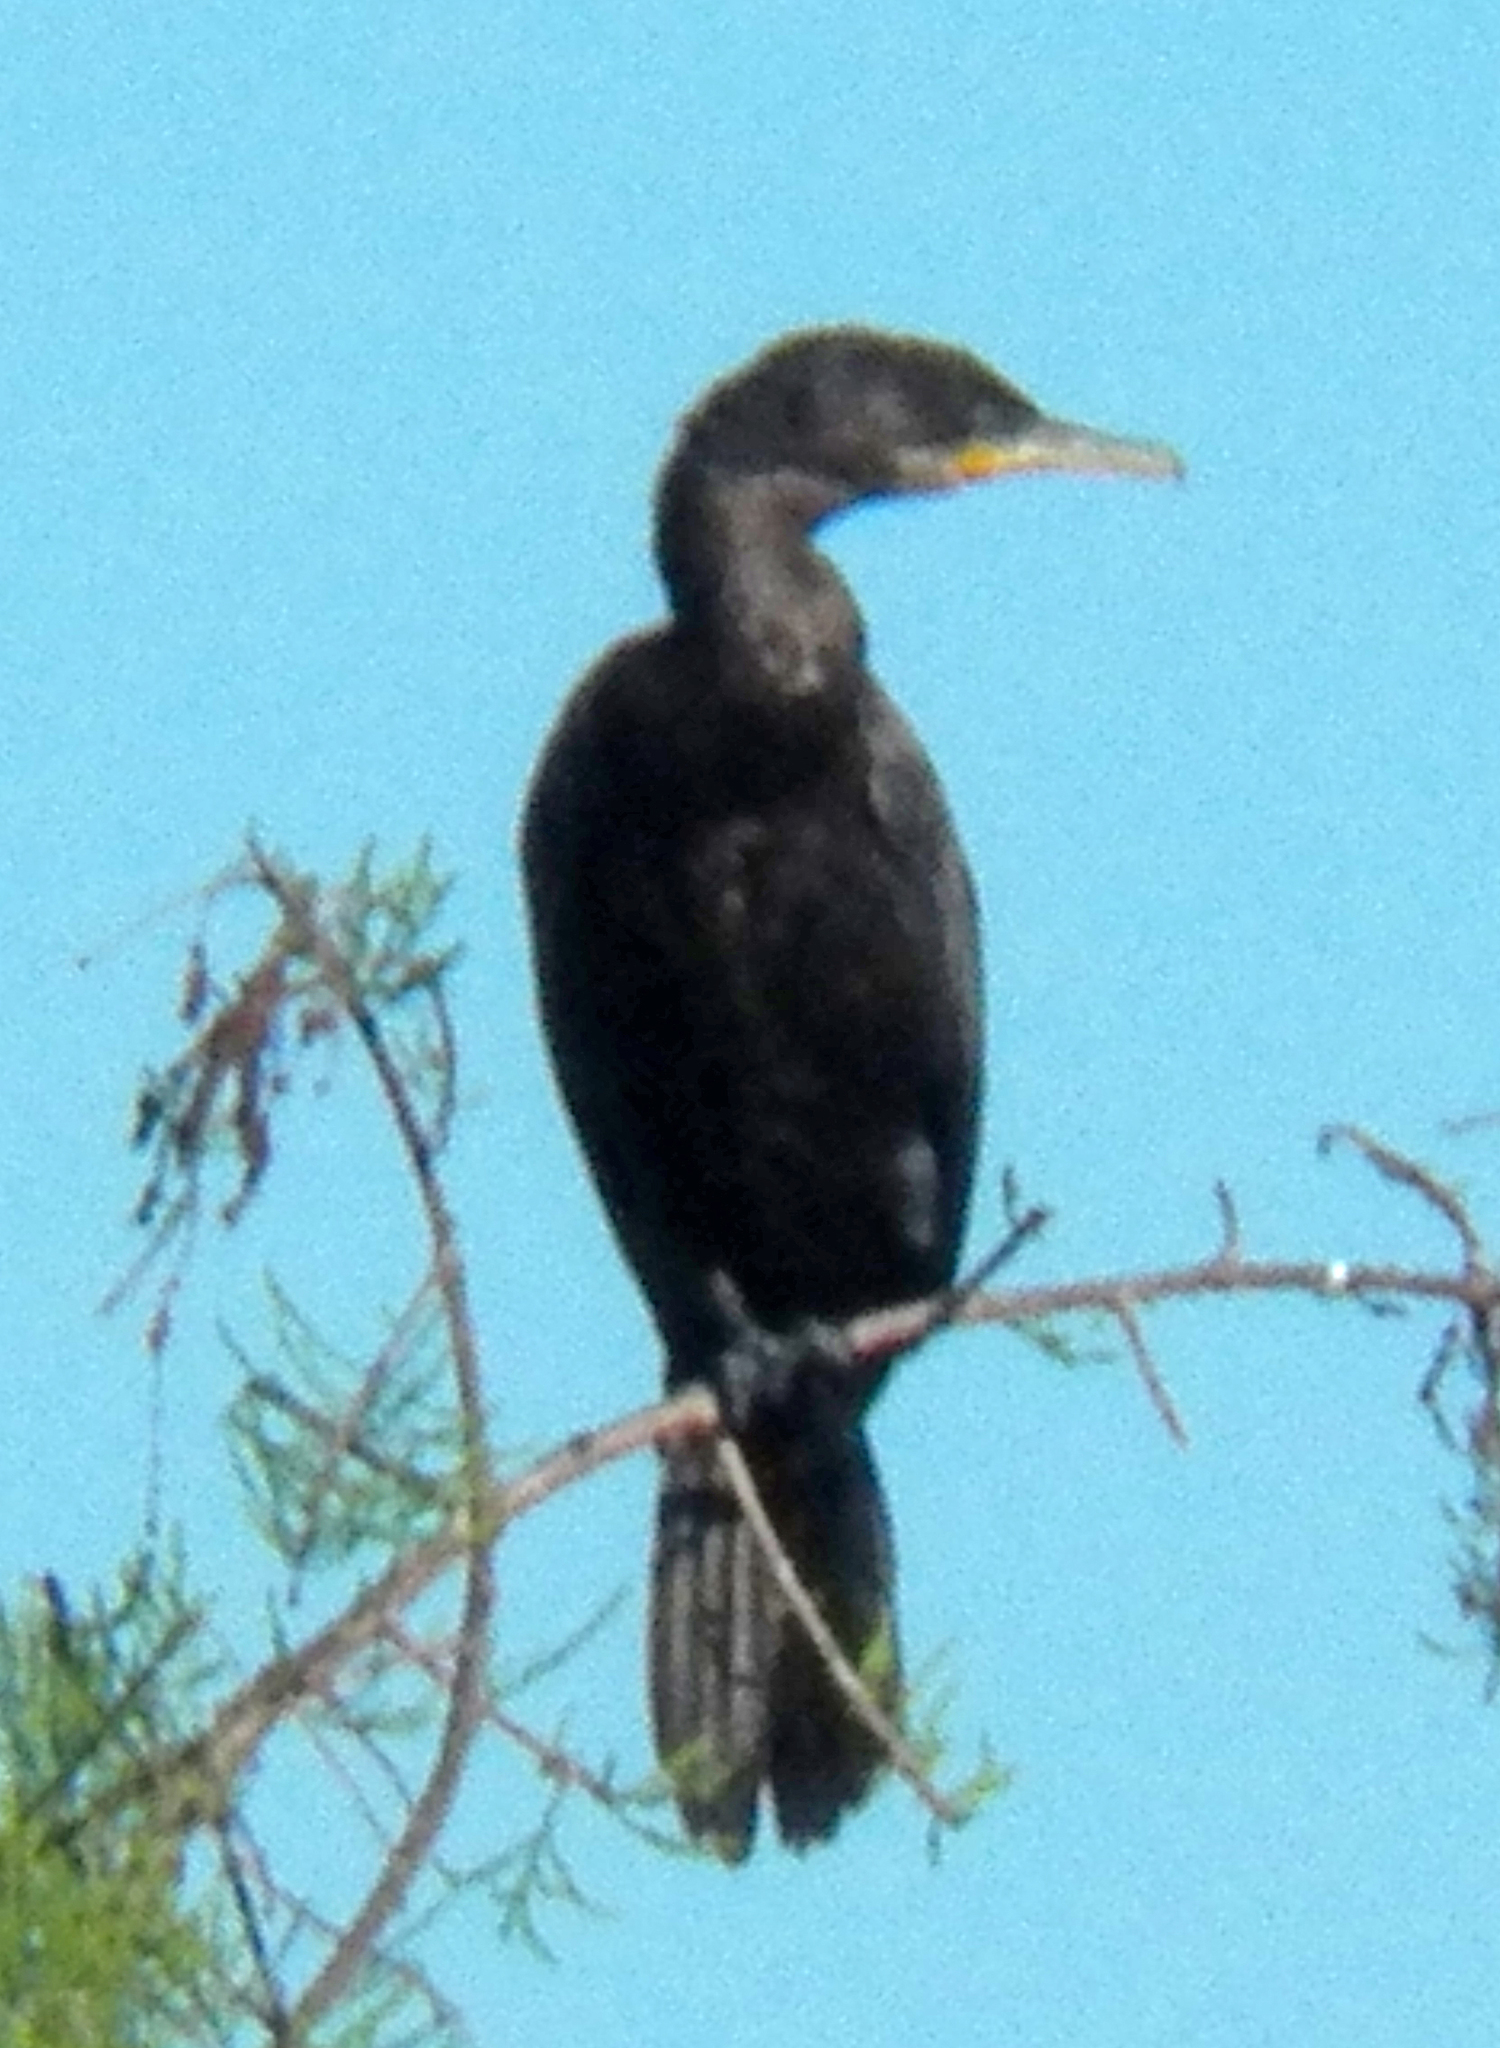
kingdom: Animalia
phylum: Chordata
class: Aves
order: Suliformes
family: Phalacrocoracidae
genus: Phalacrocorax
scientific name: Phalacrocorax brasilianus
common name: Neotropic cormorant
